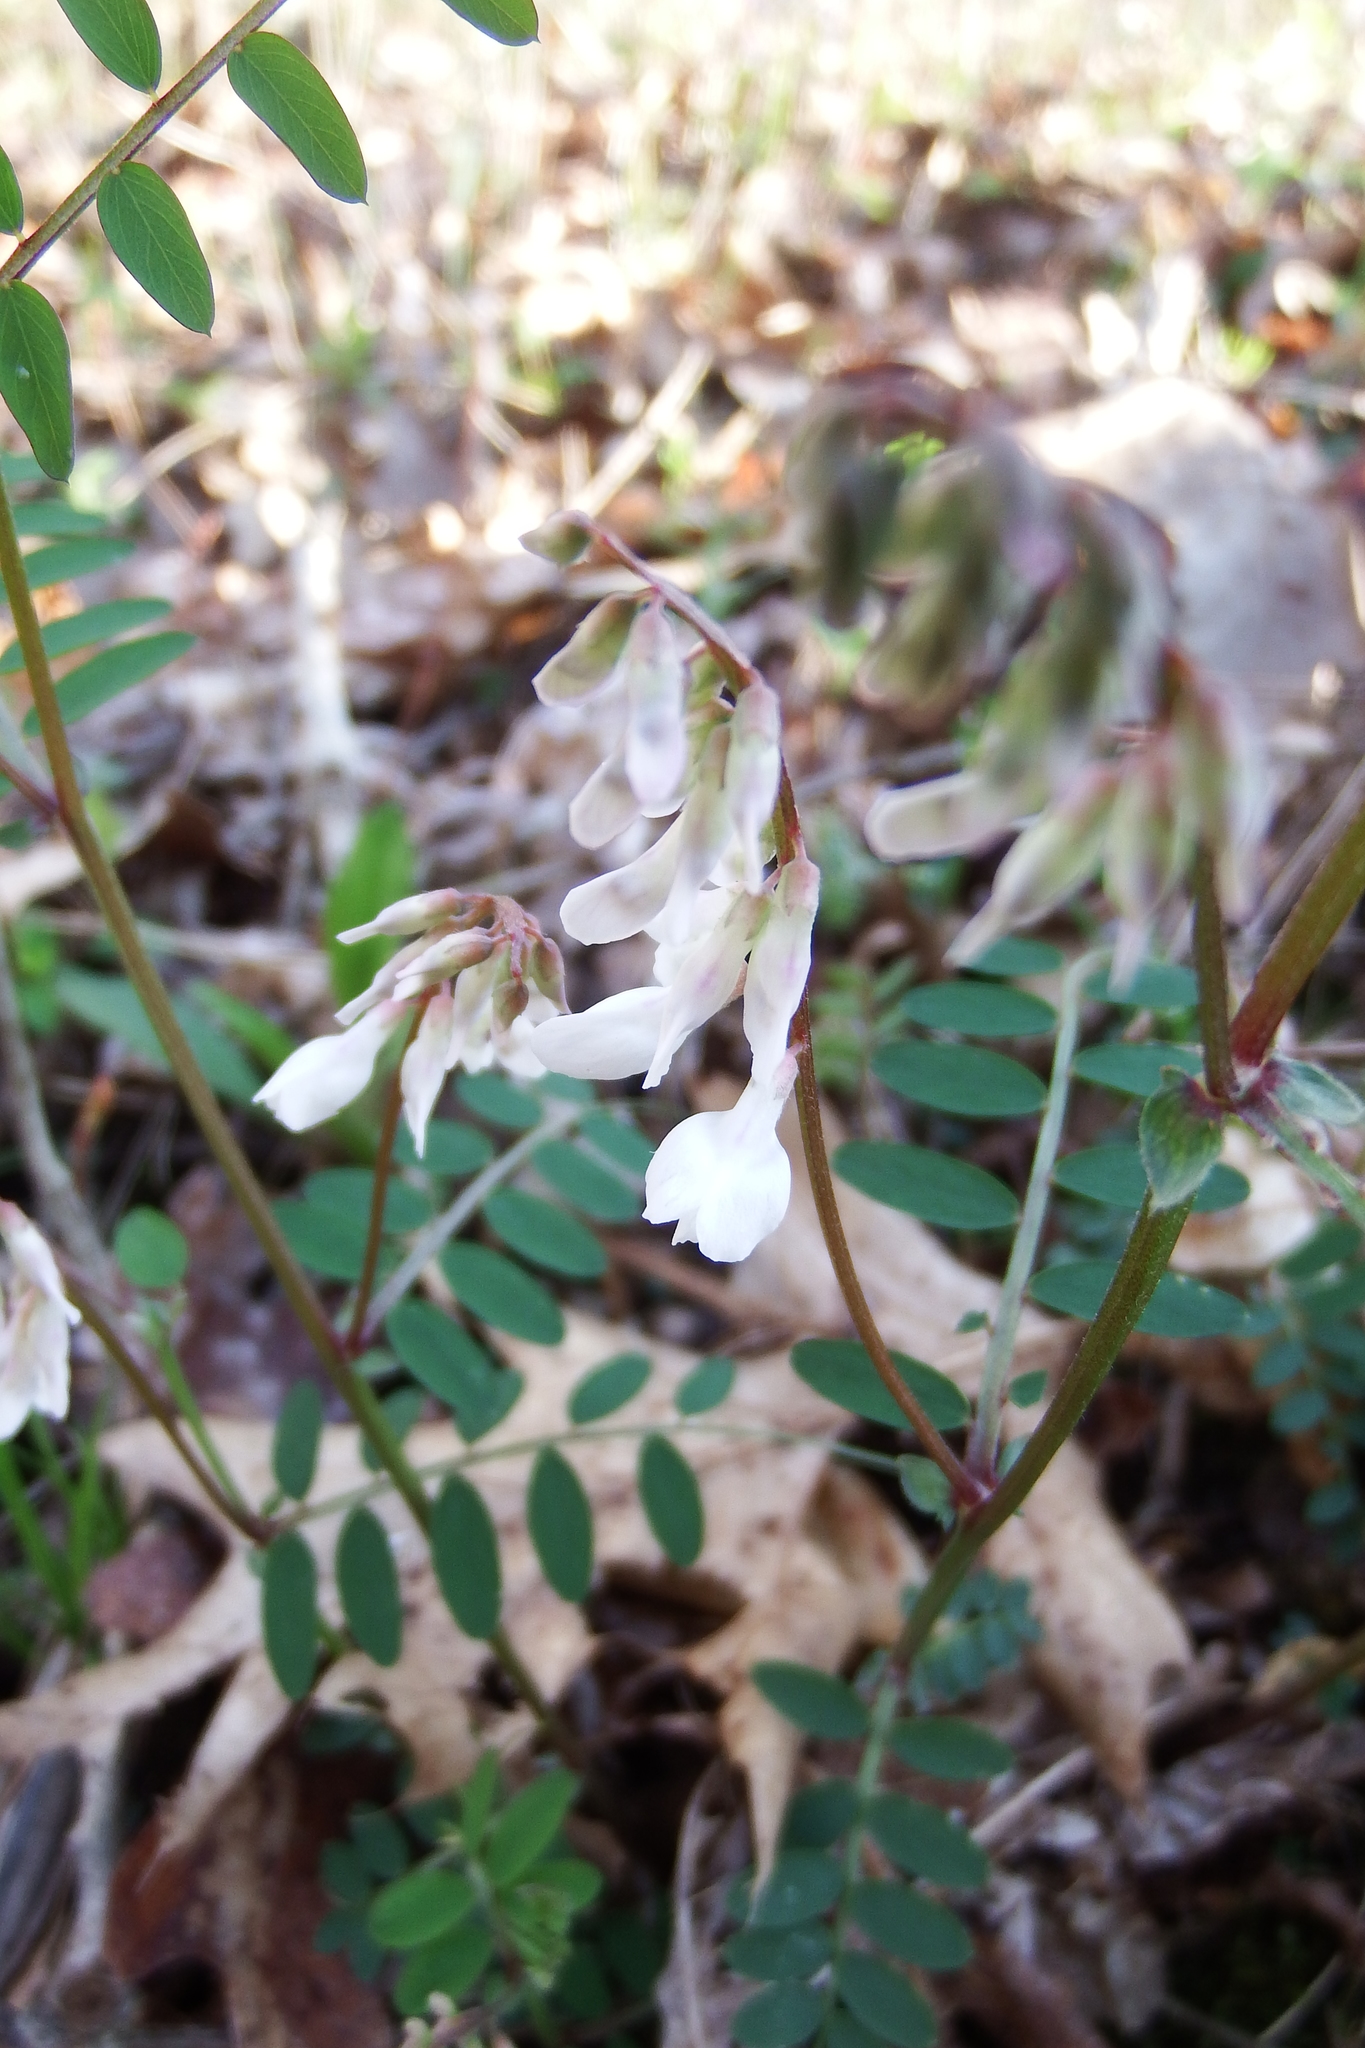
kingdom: Plantae
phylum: Tracheophyta
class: Magnoliopsida
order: Fabales
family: Fabaceae
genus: Vicia
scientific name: Vicia caroliniana
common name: Carolina vetch
